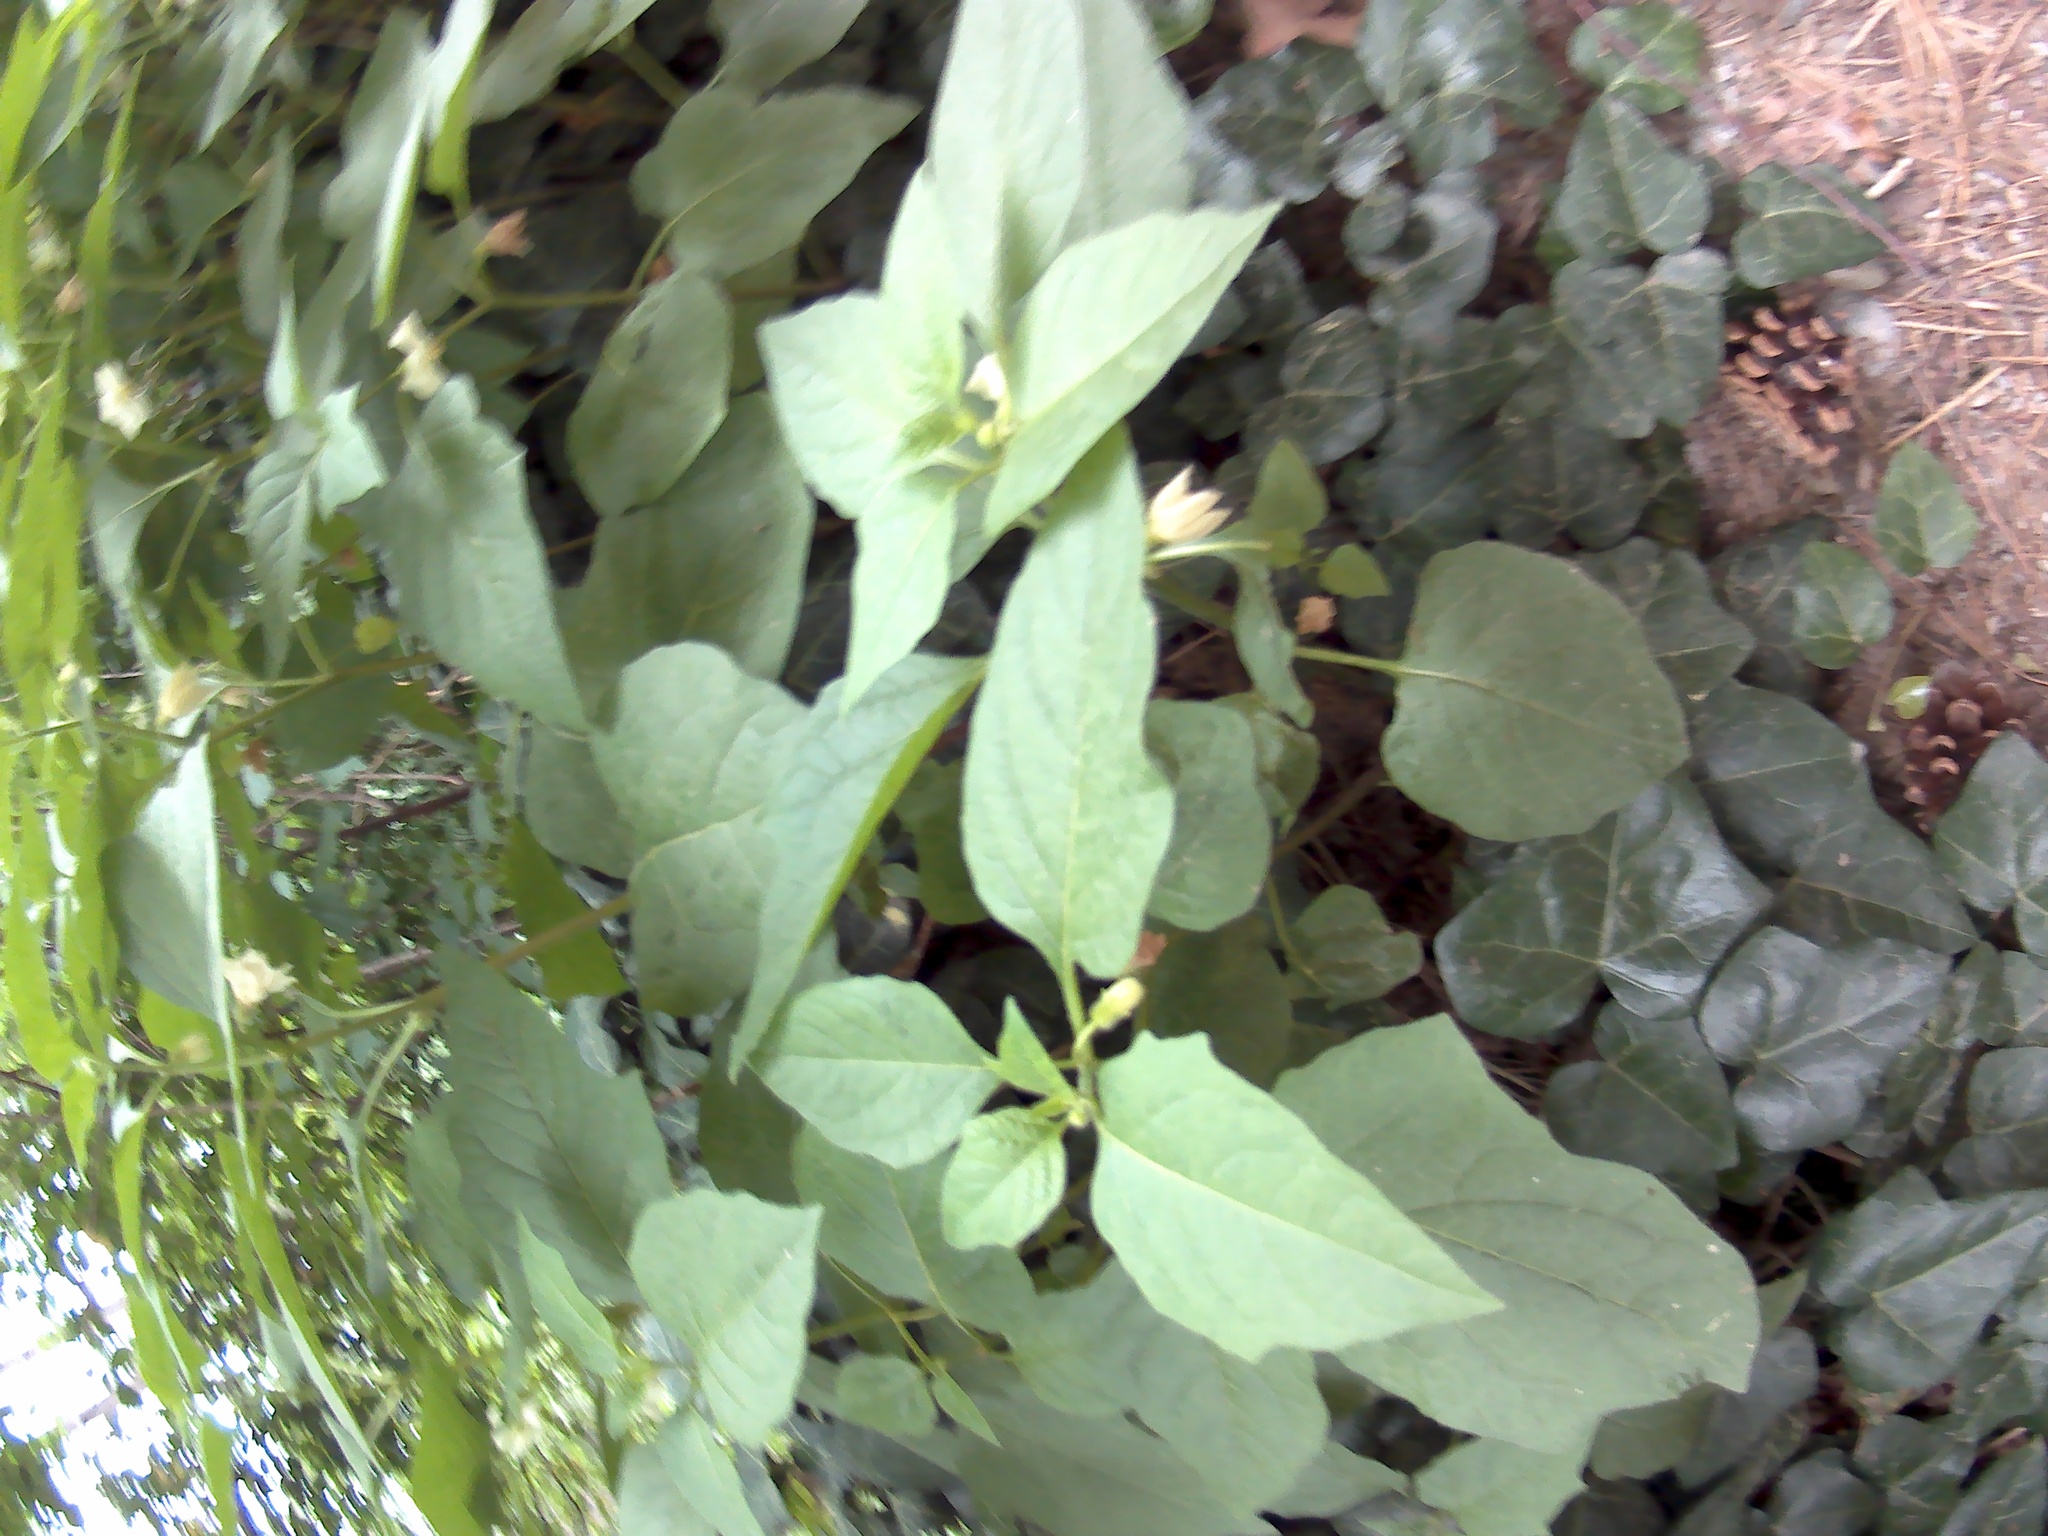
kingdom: Plantae
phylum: Tracheophyta
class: Magnoliopsida
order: Solanales
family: Solanaceae
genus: Alkekengi
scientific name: Alkekengi officinarum
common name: Japanese-lantern
